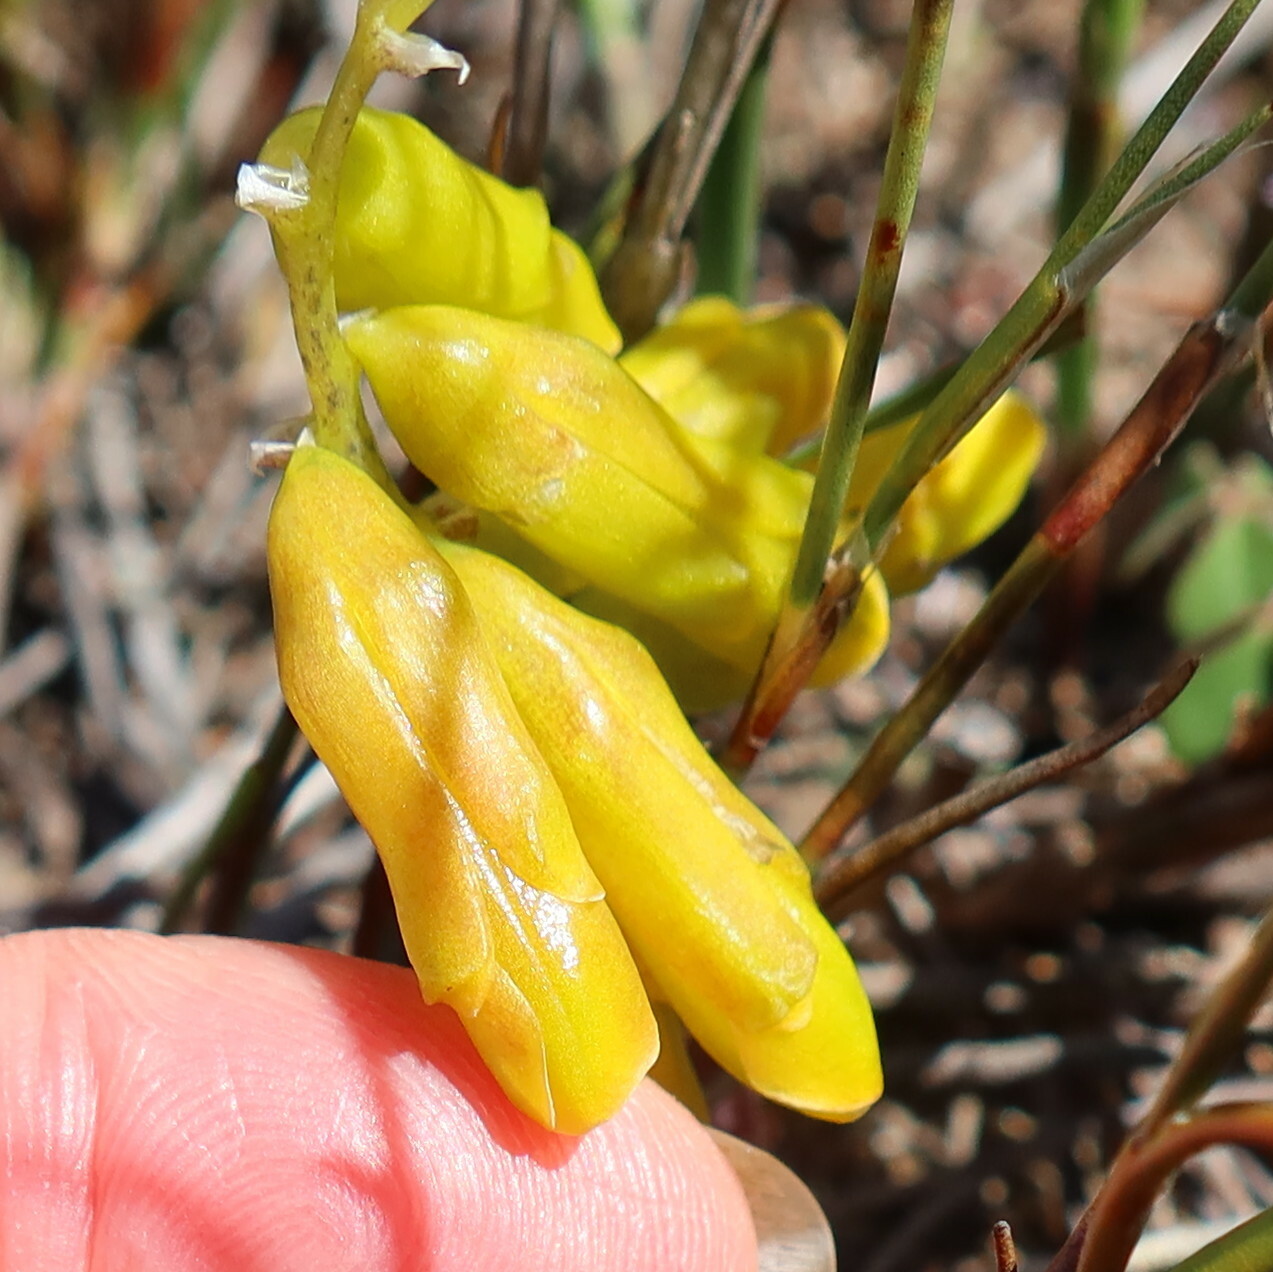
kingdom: Plantae
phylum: Tracheophyta
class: Liliopsida
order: Asparagales
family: Asparagaceae
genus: Lachenalia
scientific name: Lachenalia patentissima
